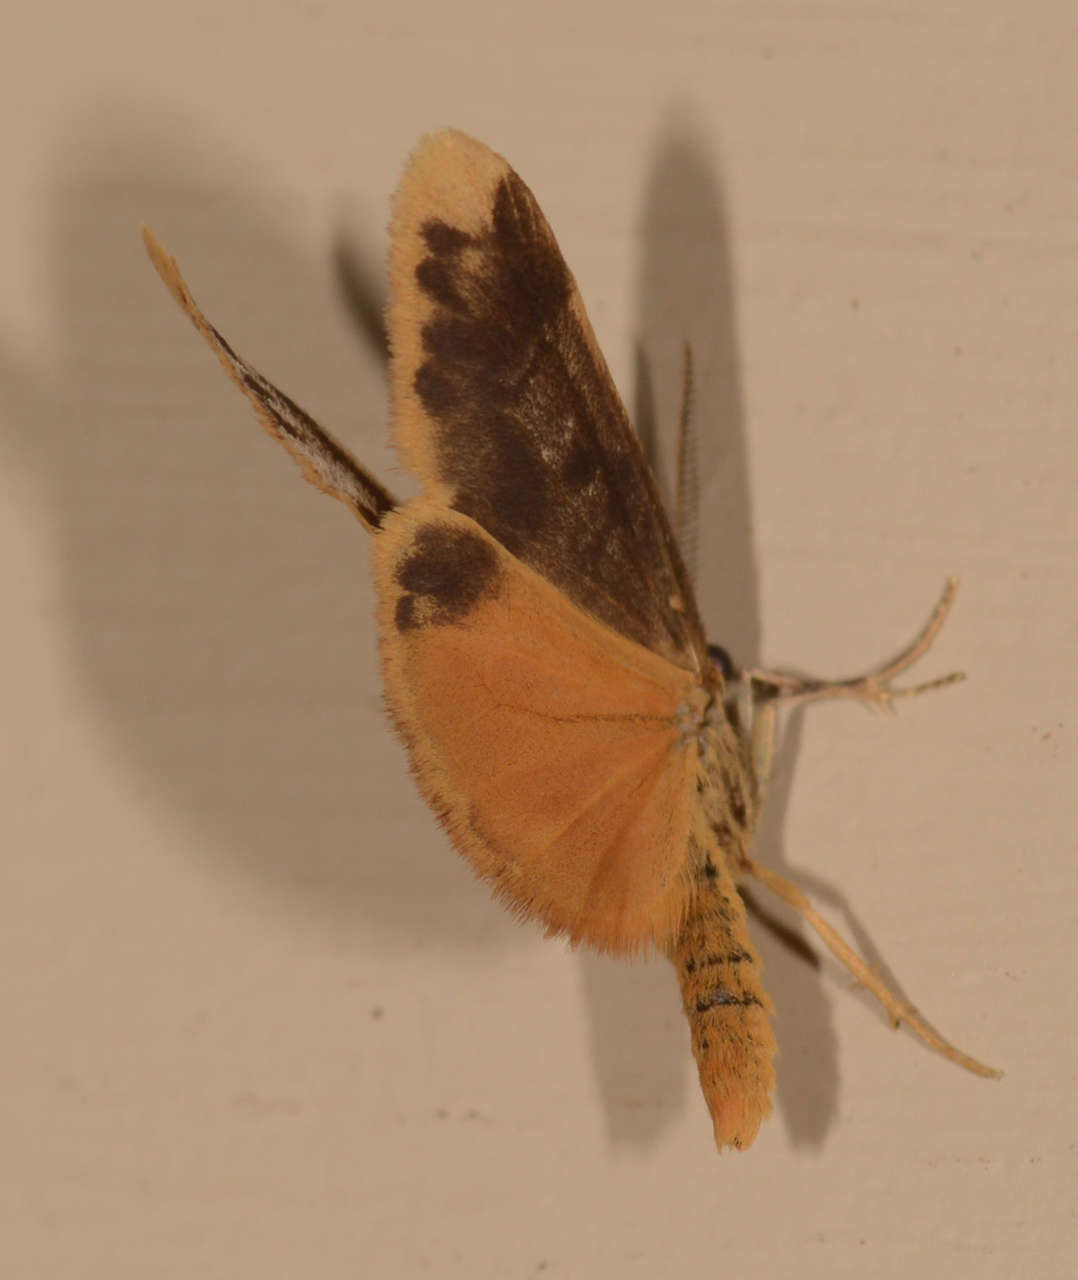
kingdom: Animalia
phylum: Arthropoda
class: Insecta
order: Lepidoptera
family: Erebidae
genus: Anestia
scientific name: Anestia
